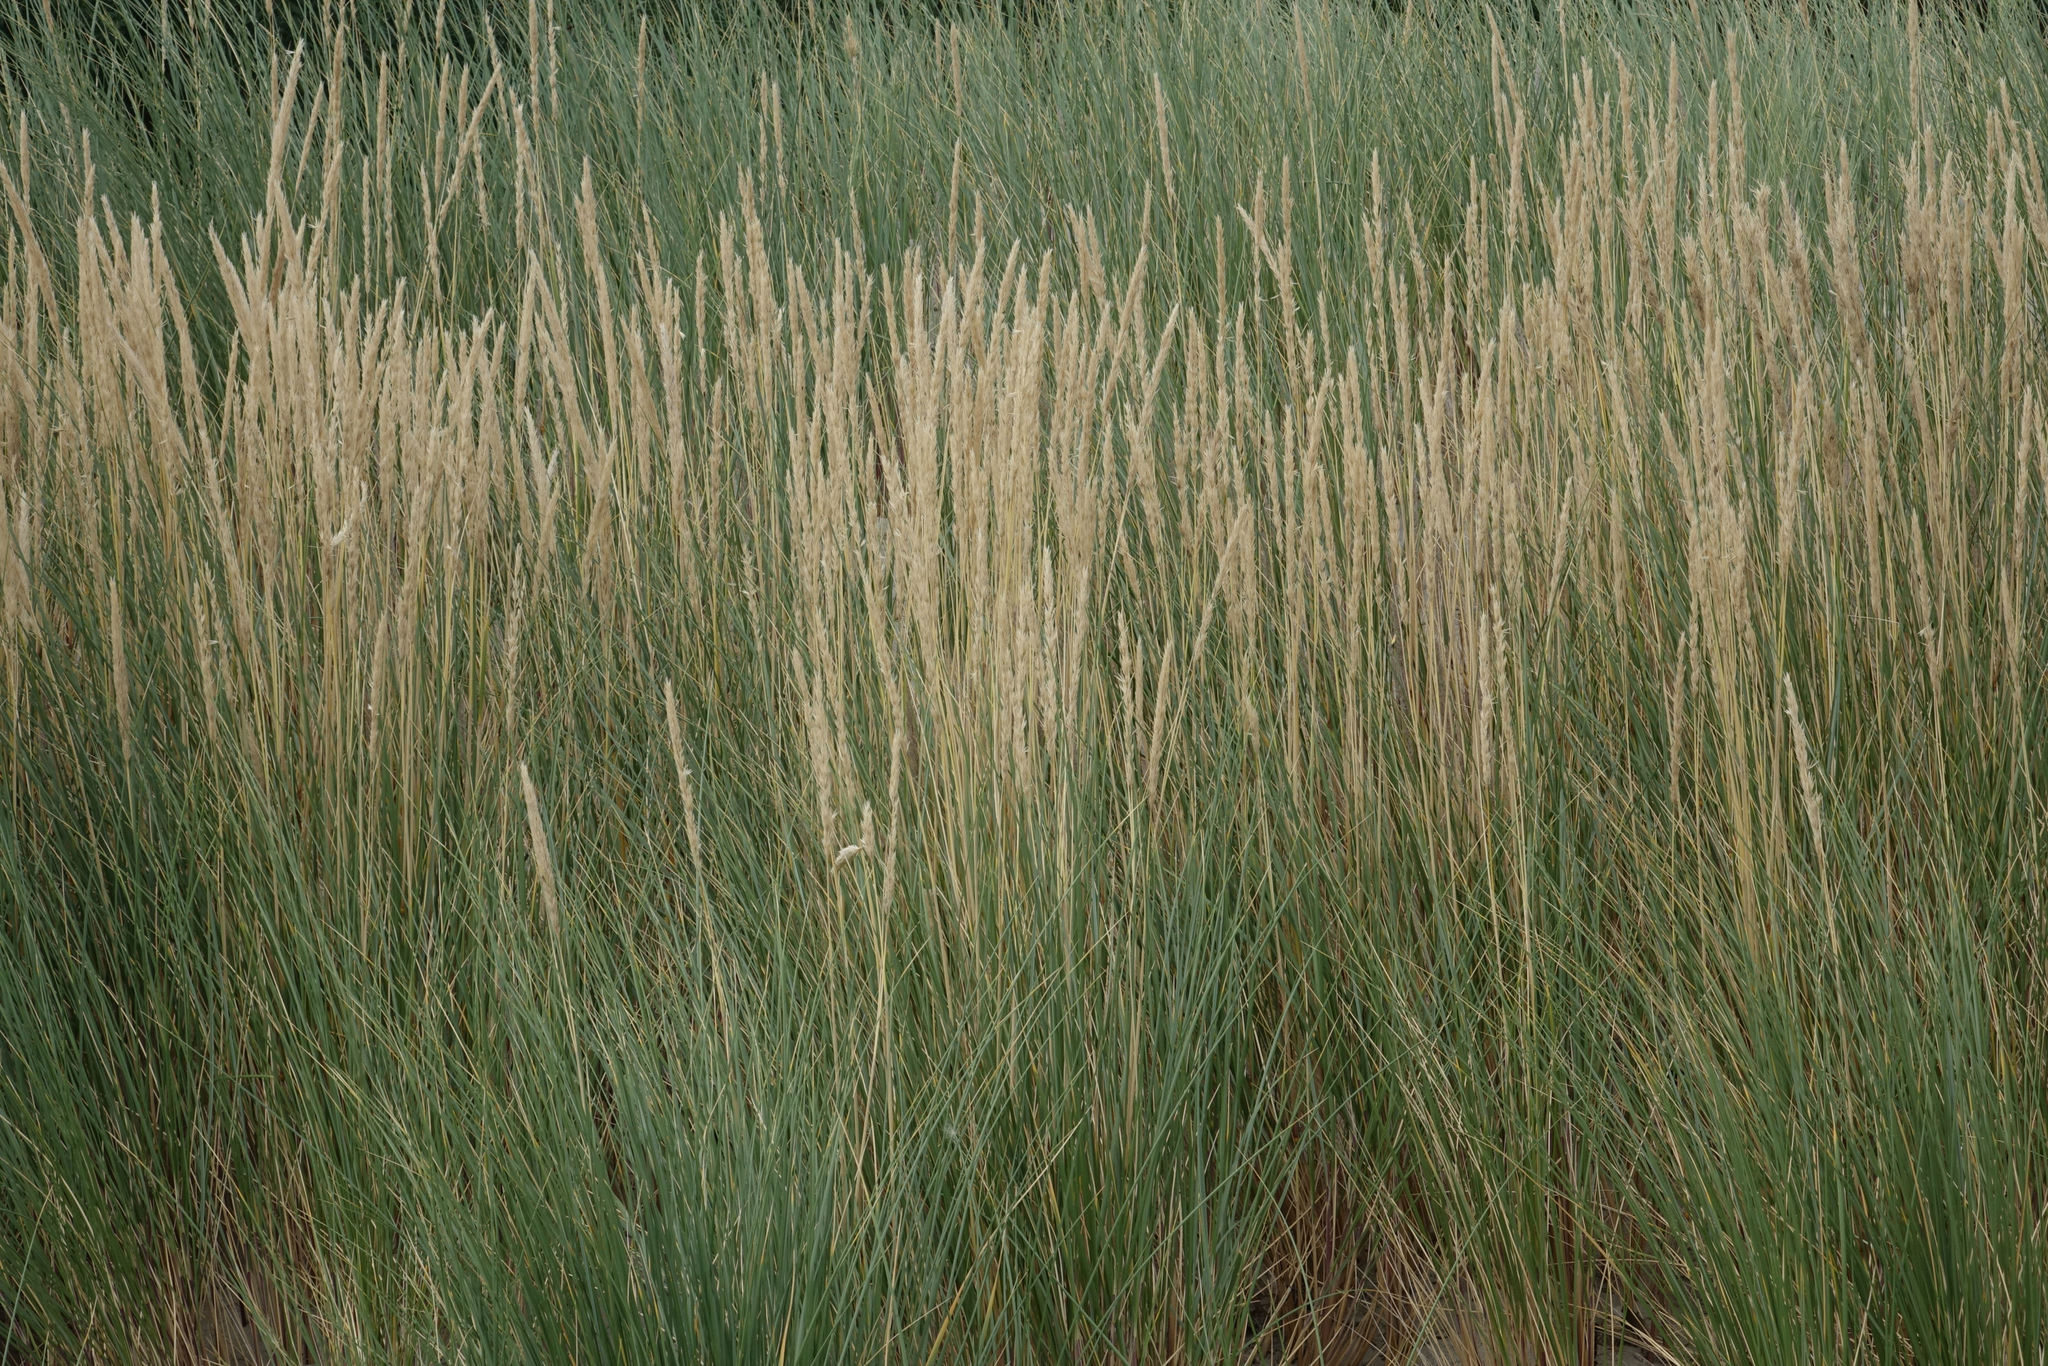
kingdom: Plantae
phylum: Tracheophyta
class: Liliopsida
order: Poales
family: Poaceae
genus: Calamagrostis
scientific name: Calamagrostis arenaria
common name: European beachgrass
